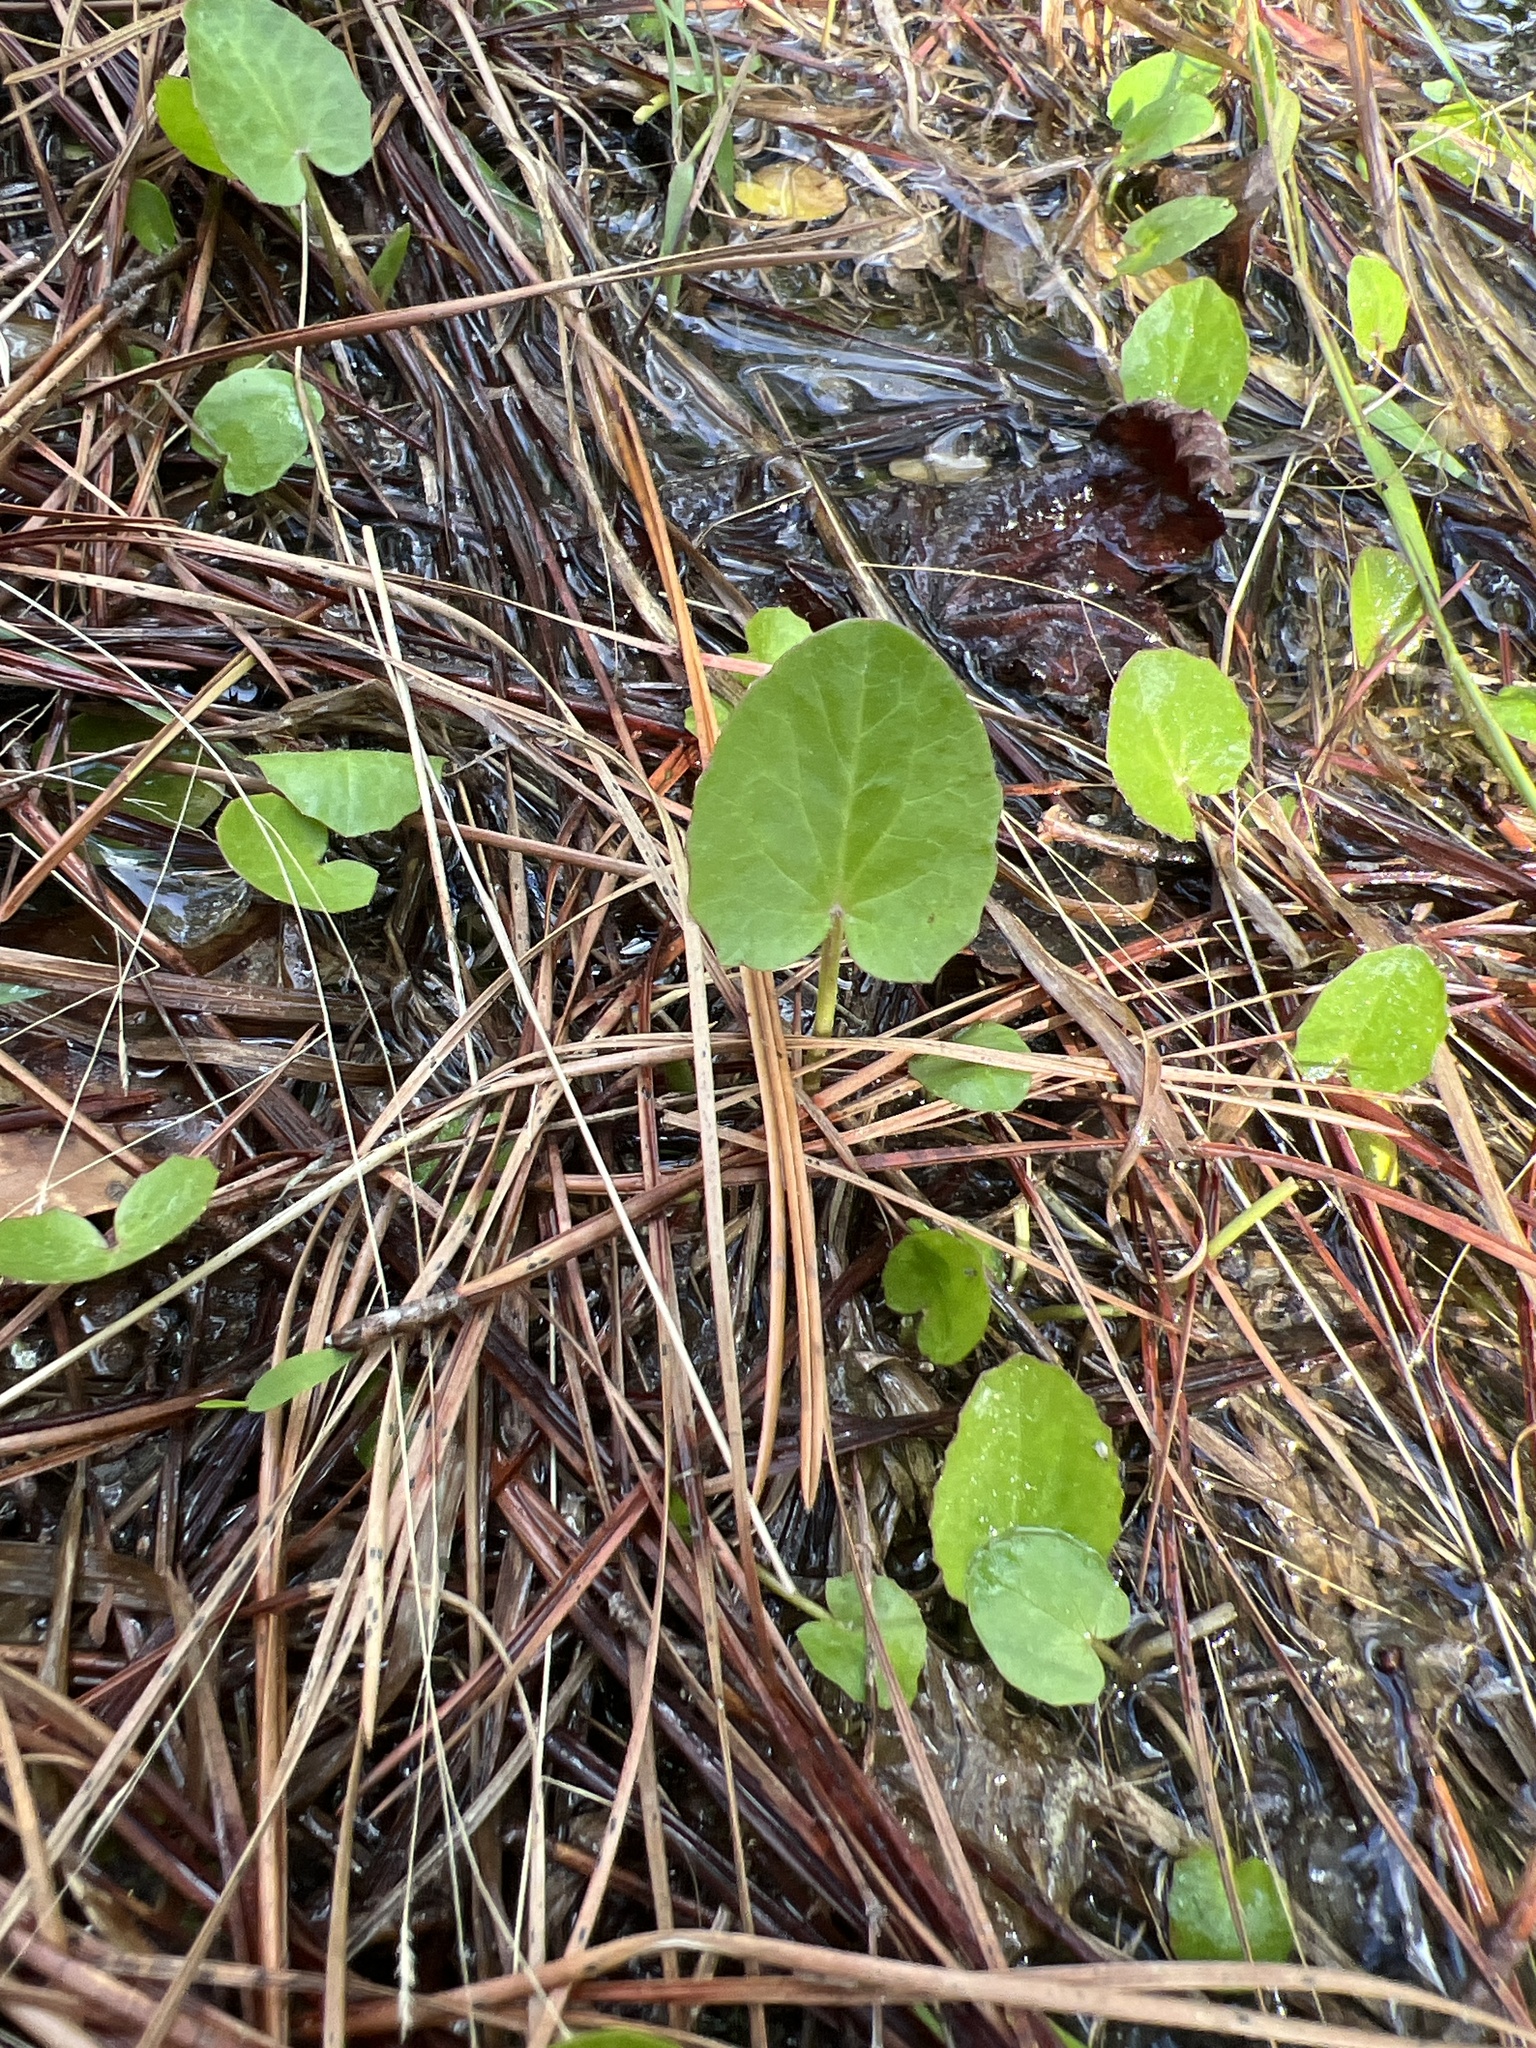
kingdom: Plantae
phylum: Tracheophyta
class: Magnoliopsida
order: Apiales
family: Apiaceae
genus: Centella
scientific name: Centella erecta
